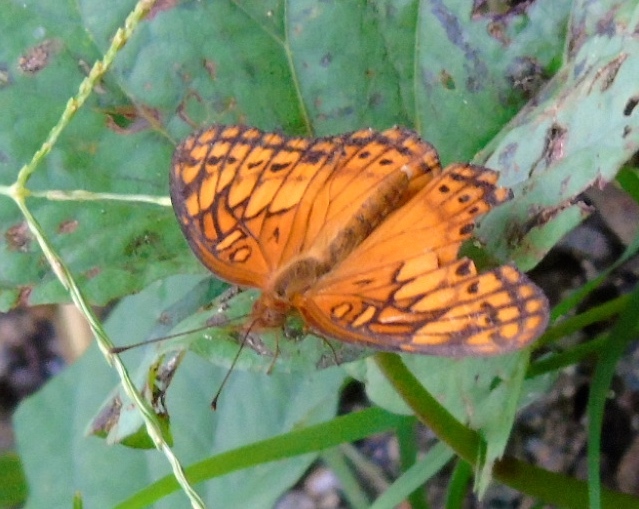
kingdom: Animalia
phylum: Arthropoda
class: Insecta
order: Lepidoptera
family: Nymphalidae
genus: Euptoieta
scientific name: Euptoieta hegesia
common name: Mexican fritillary
